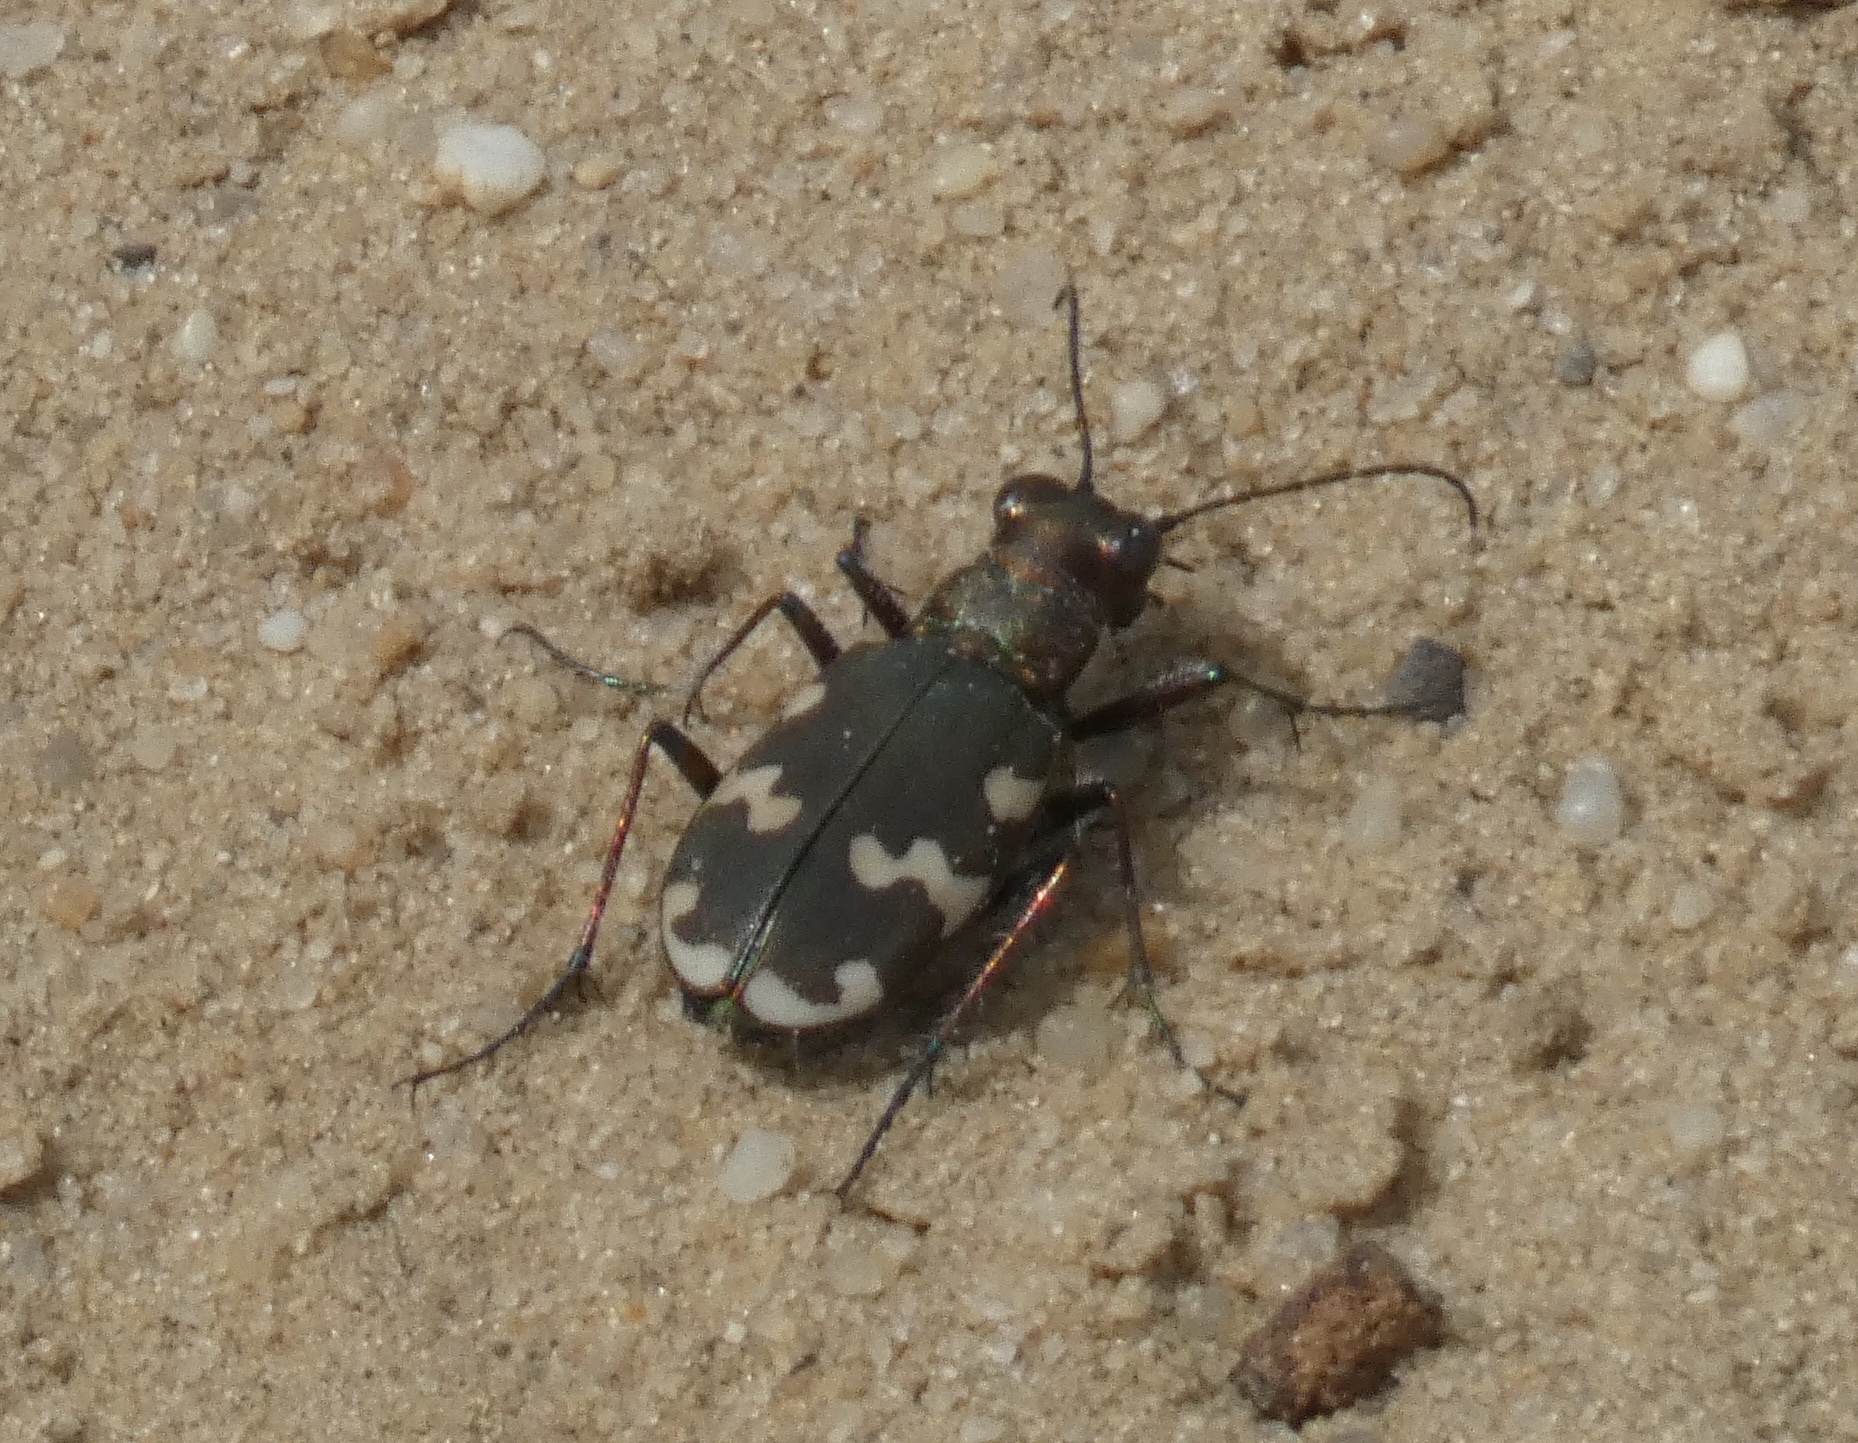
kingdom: Animalia
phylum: Arthropoda
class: Insecta
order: Coleoptera
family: Carabidae
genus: Cicindela
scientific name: Cicindela hybrida
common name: Northern dune tiger beetle
